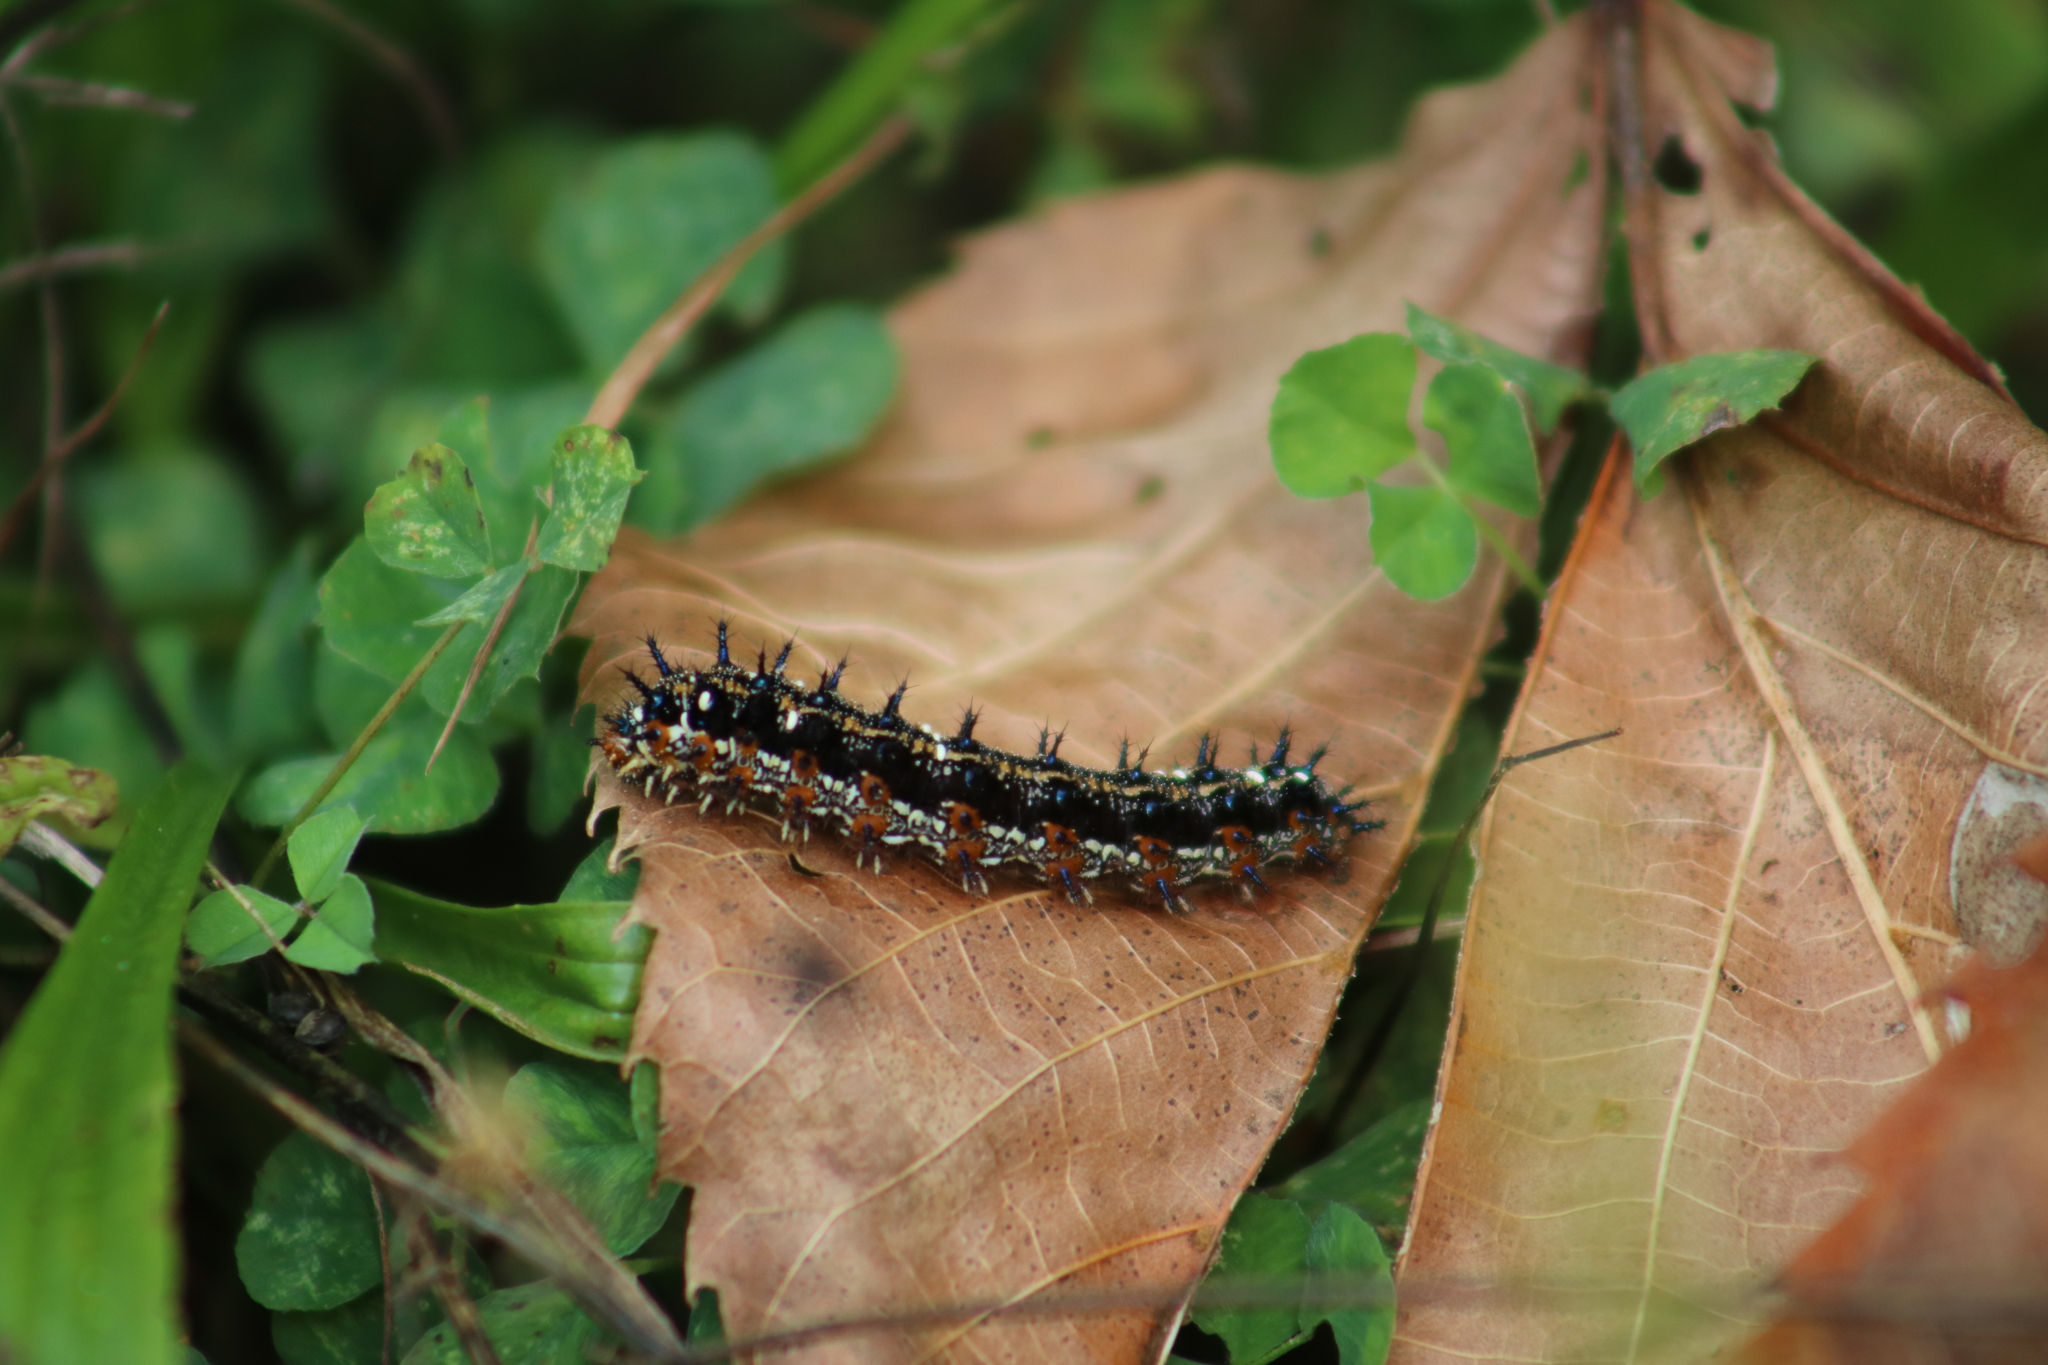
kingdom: Animalia
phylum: Arthropoda
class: Insecta
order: Lepidoptera
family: Nymphalidae
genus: Junonia
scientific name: Junonia coenia
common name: Common buckeye
